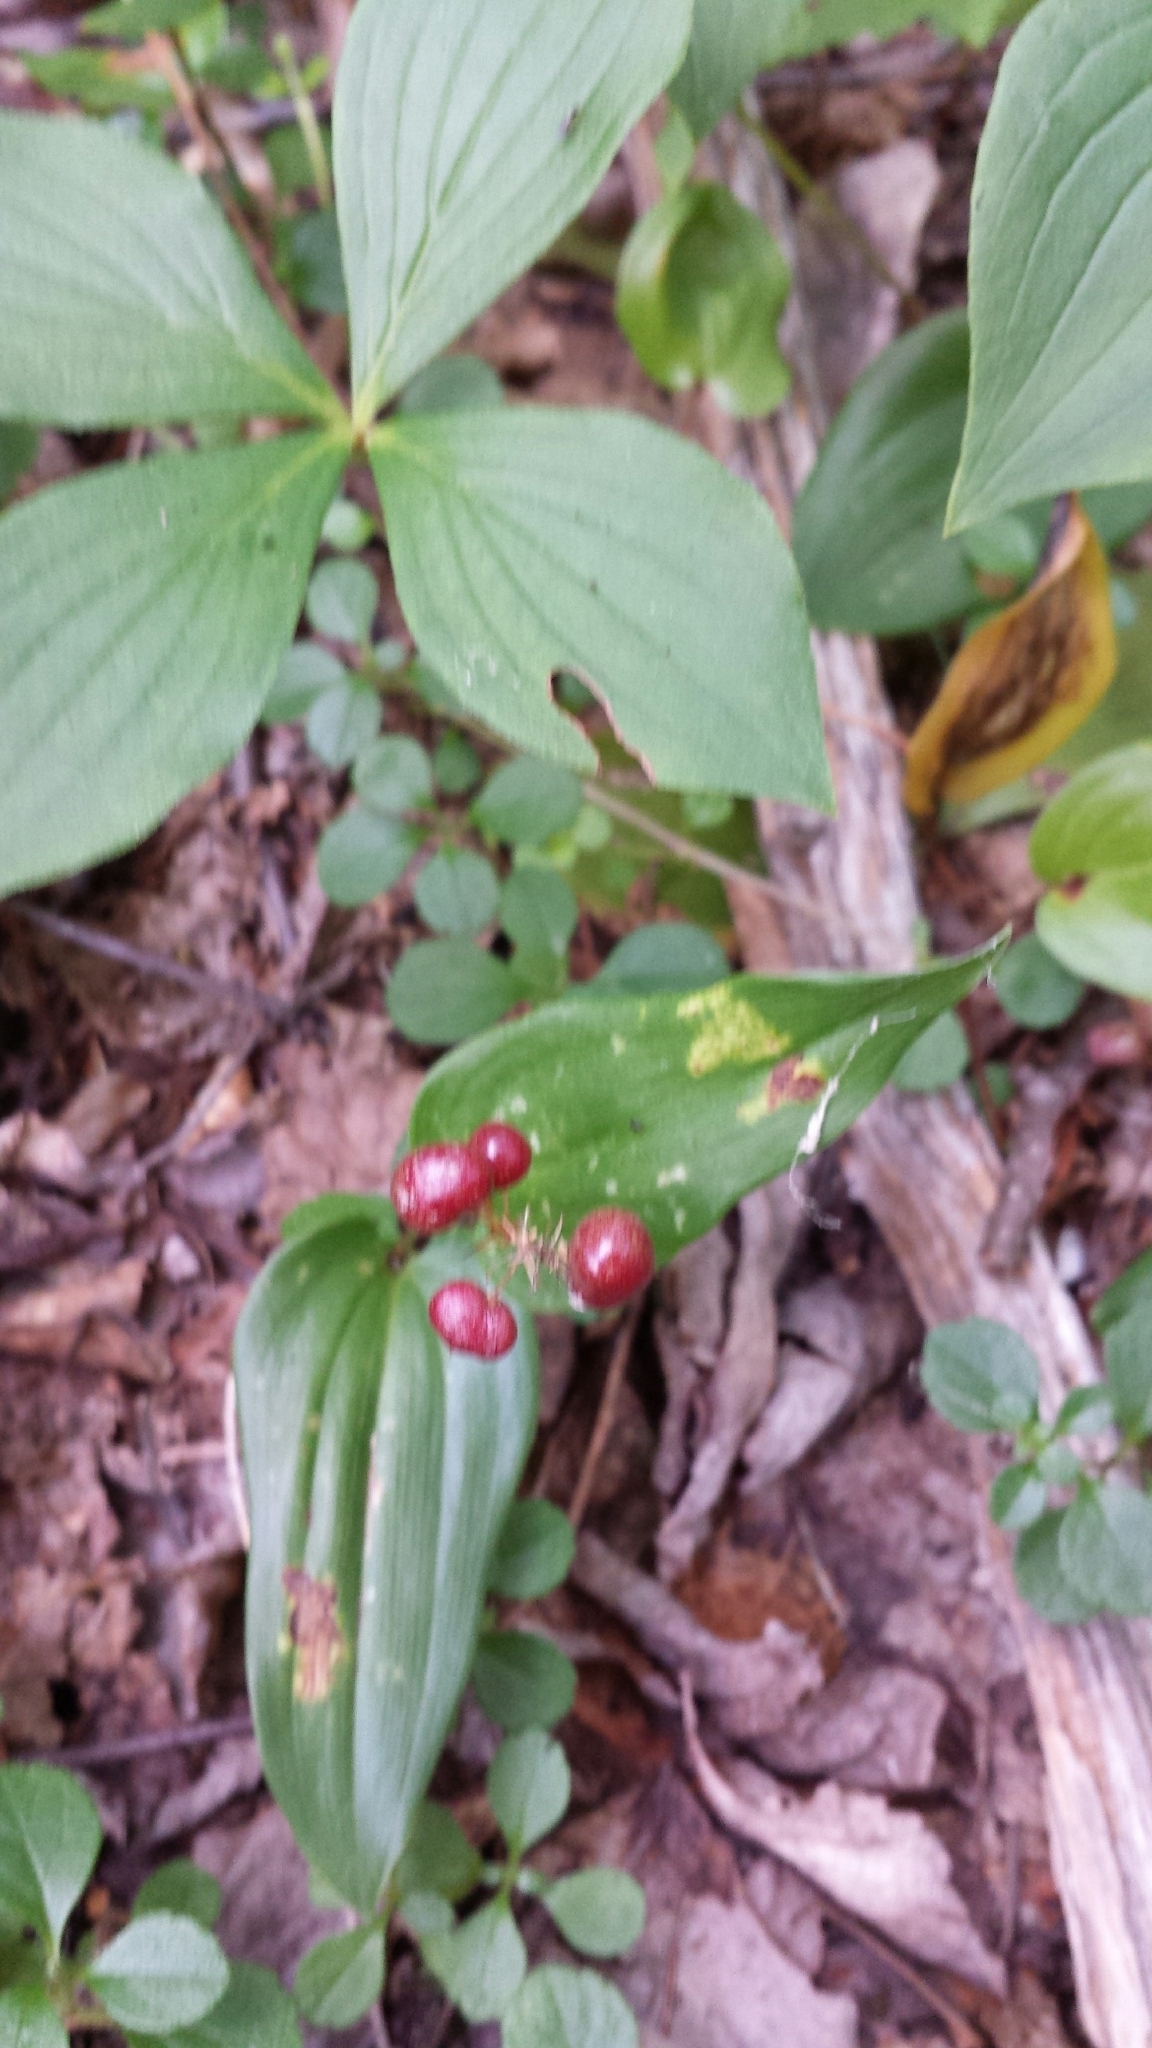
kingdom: Plantae
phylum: Tracheophyta
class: Liliopsida
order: Asparagales
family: Asparagaceae
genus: Maianthemum
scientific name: Maianthemum canadense
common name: False lily-of-the-valley
